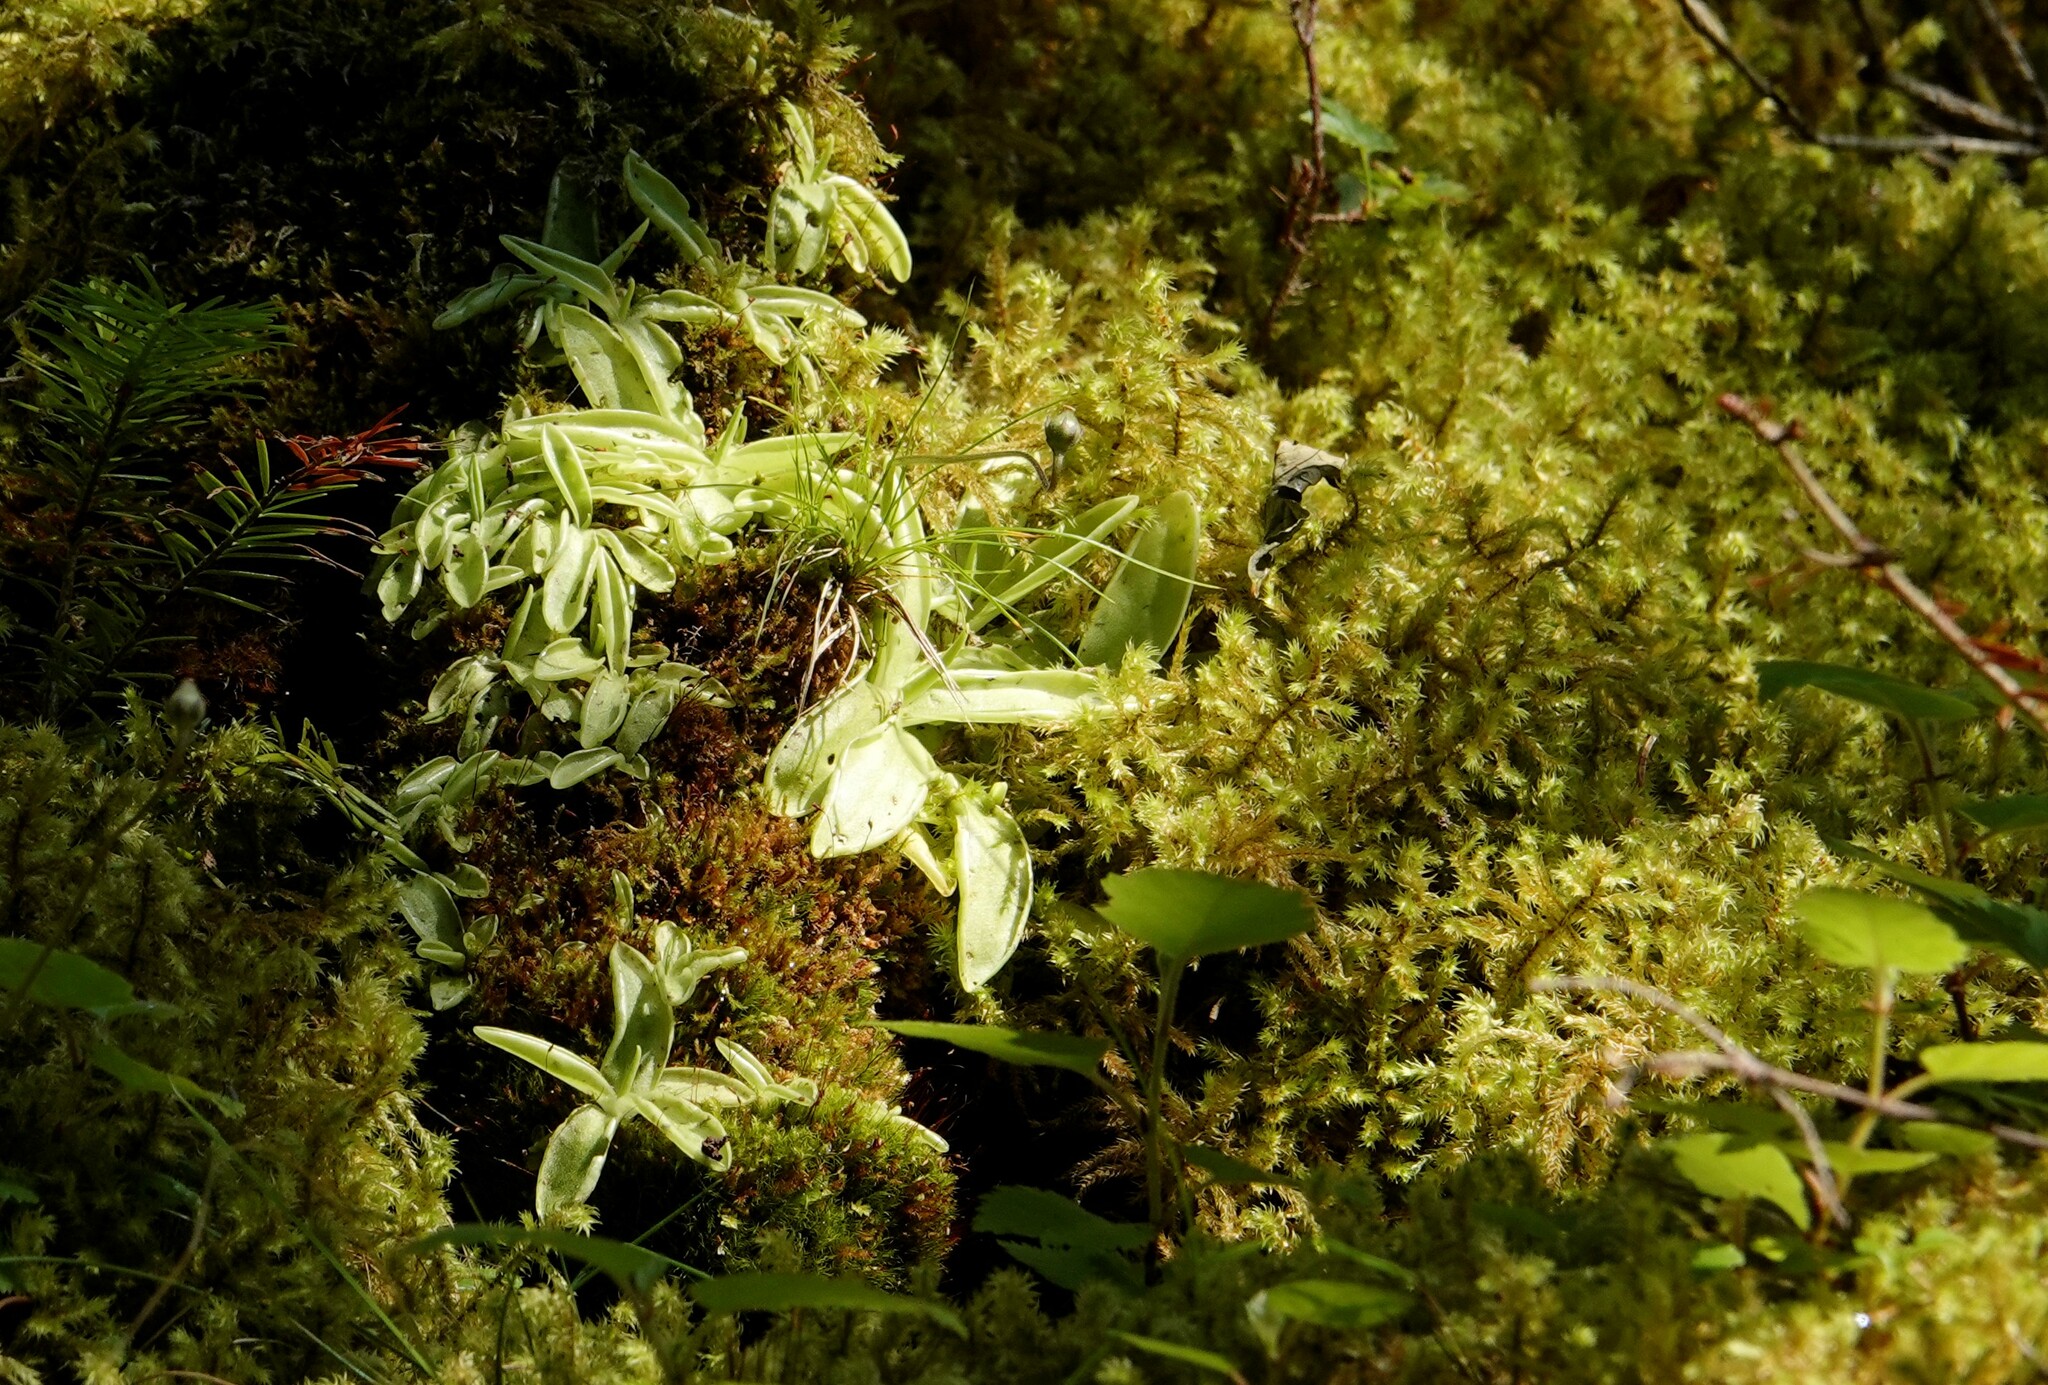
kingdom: Plantae
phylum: Tracheophyta
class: Magnoliopsida
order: Lamiales
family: Lentibulariaceae
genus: Pinguicula
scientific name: Pinguicula vulgaris
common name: Common butterwort
